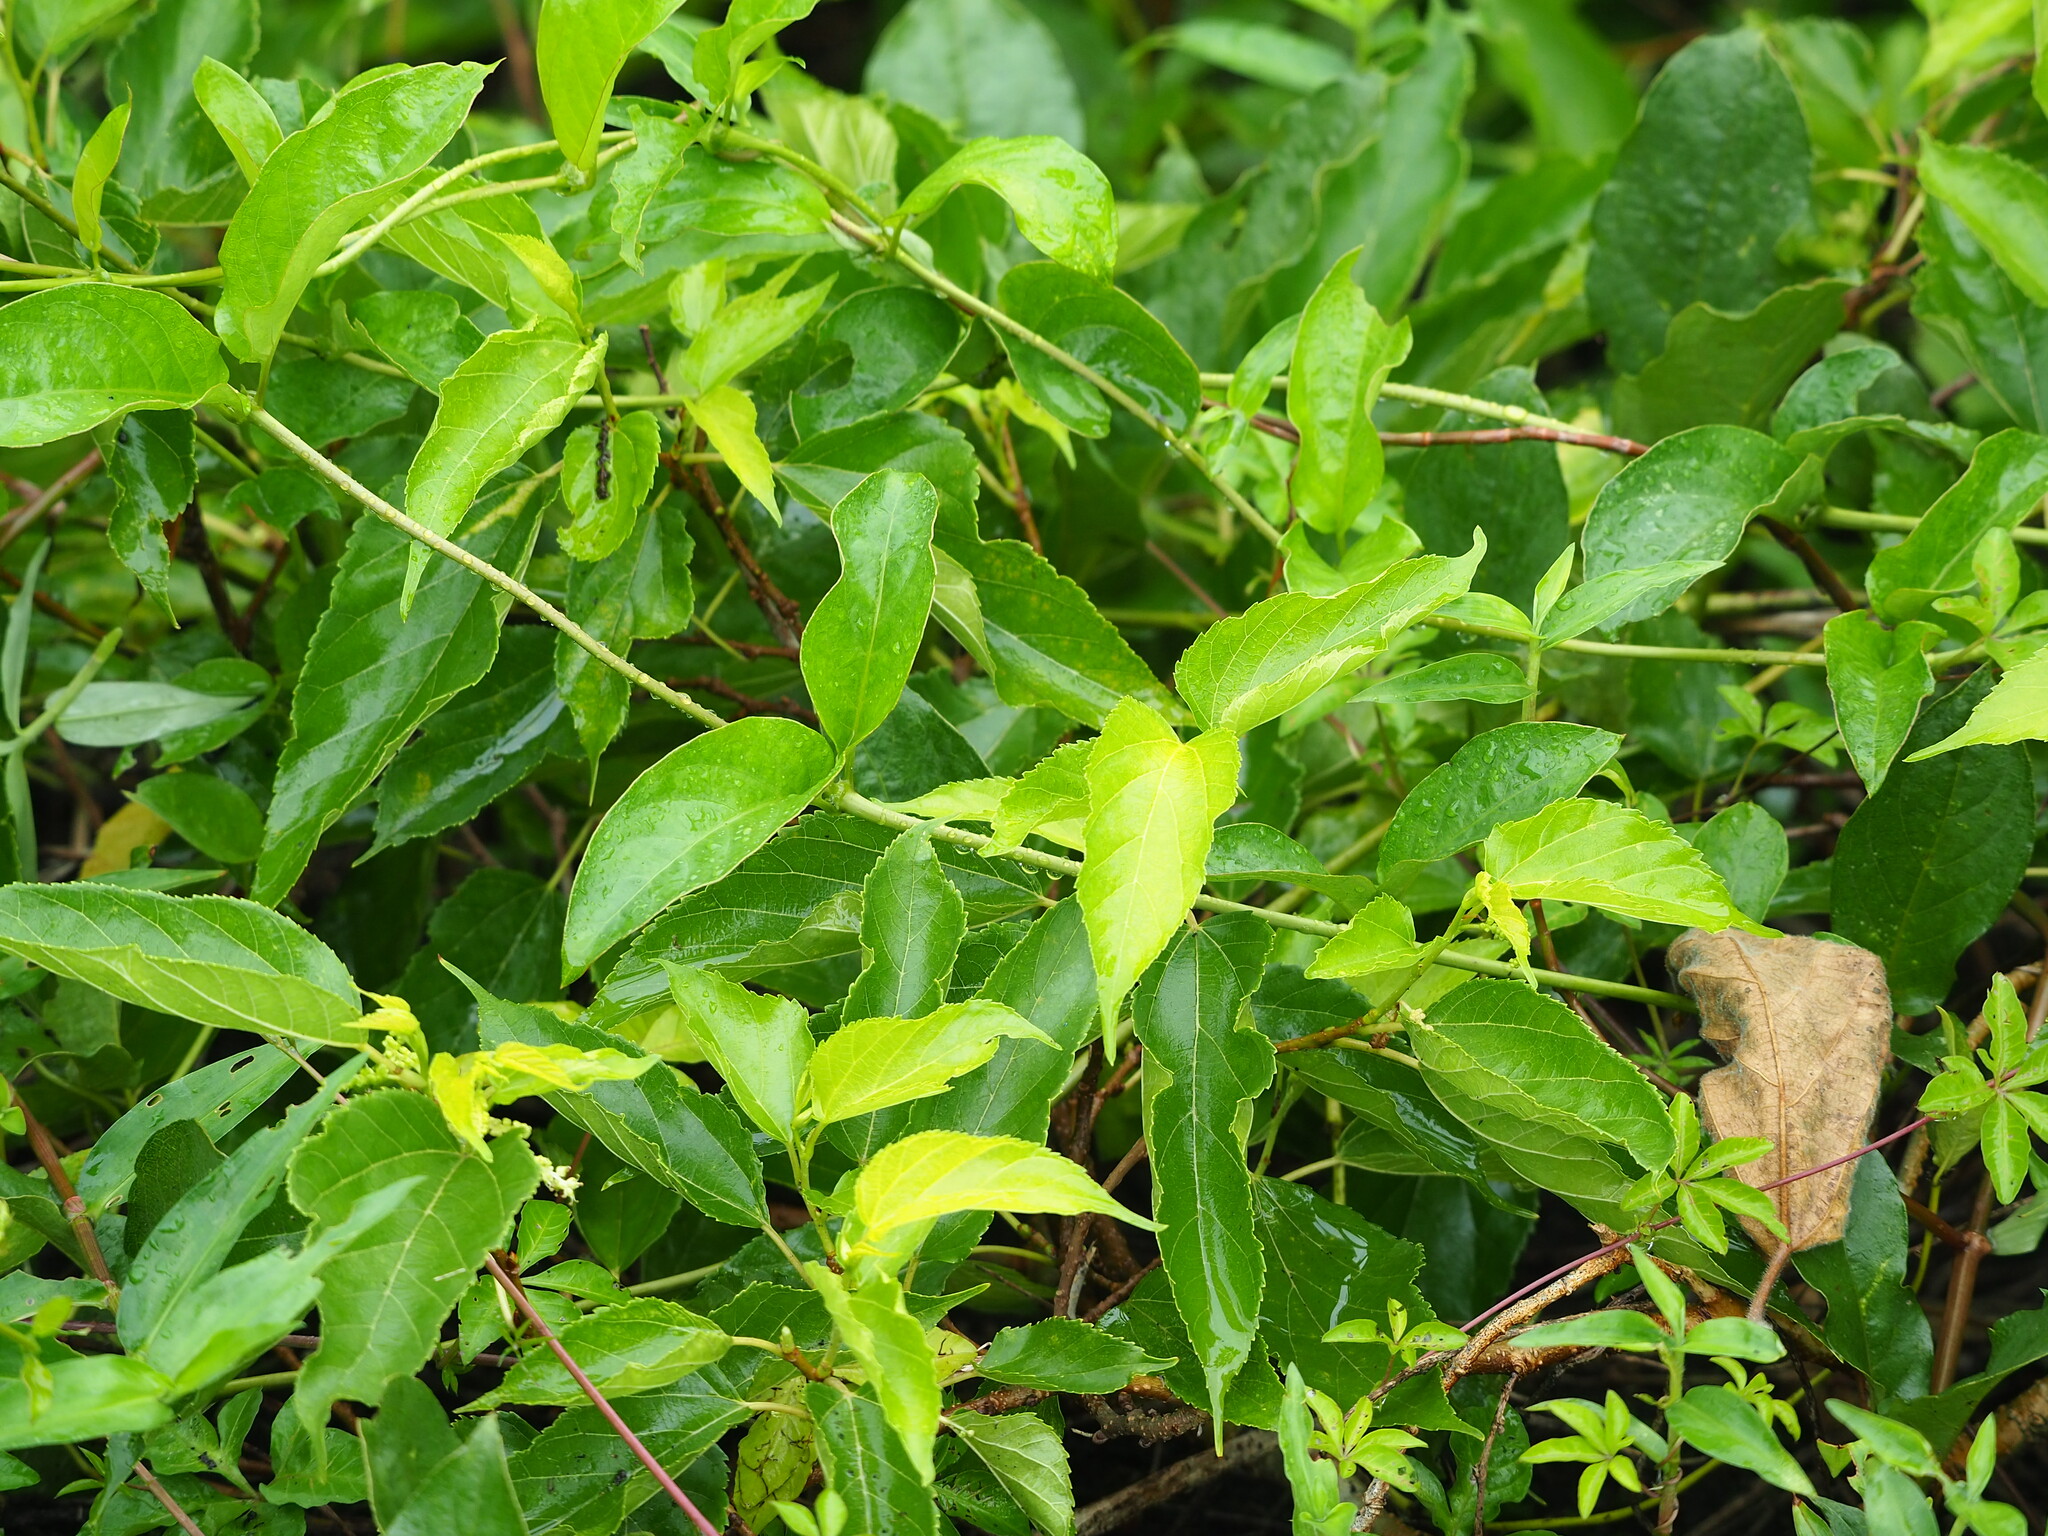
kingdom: Plantae
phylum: Tracheophyta
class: Magnoliopsida
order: Gentianales
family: Rubiaceae
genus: Paederia
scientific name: Paederia foetida
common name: Stinkvine
